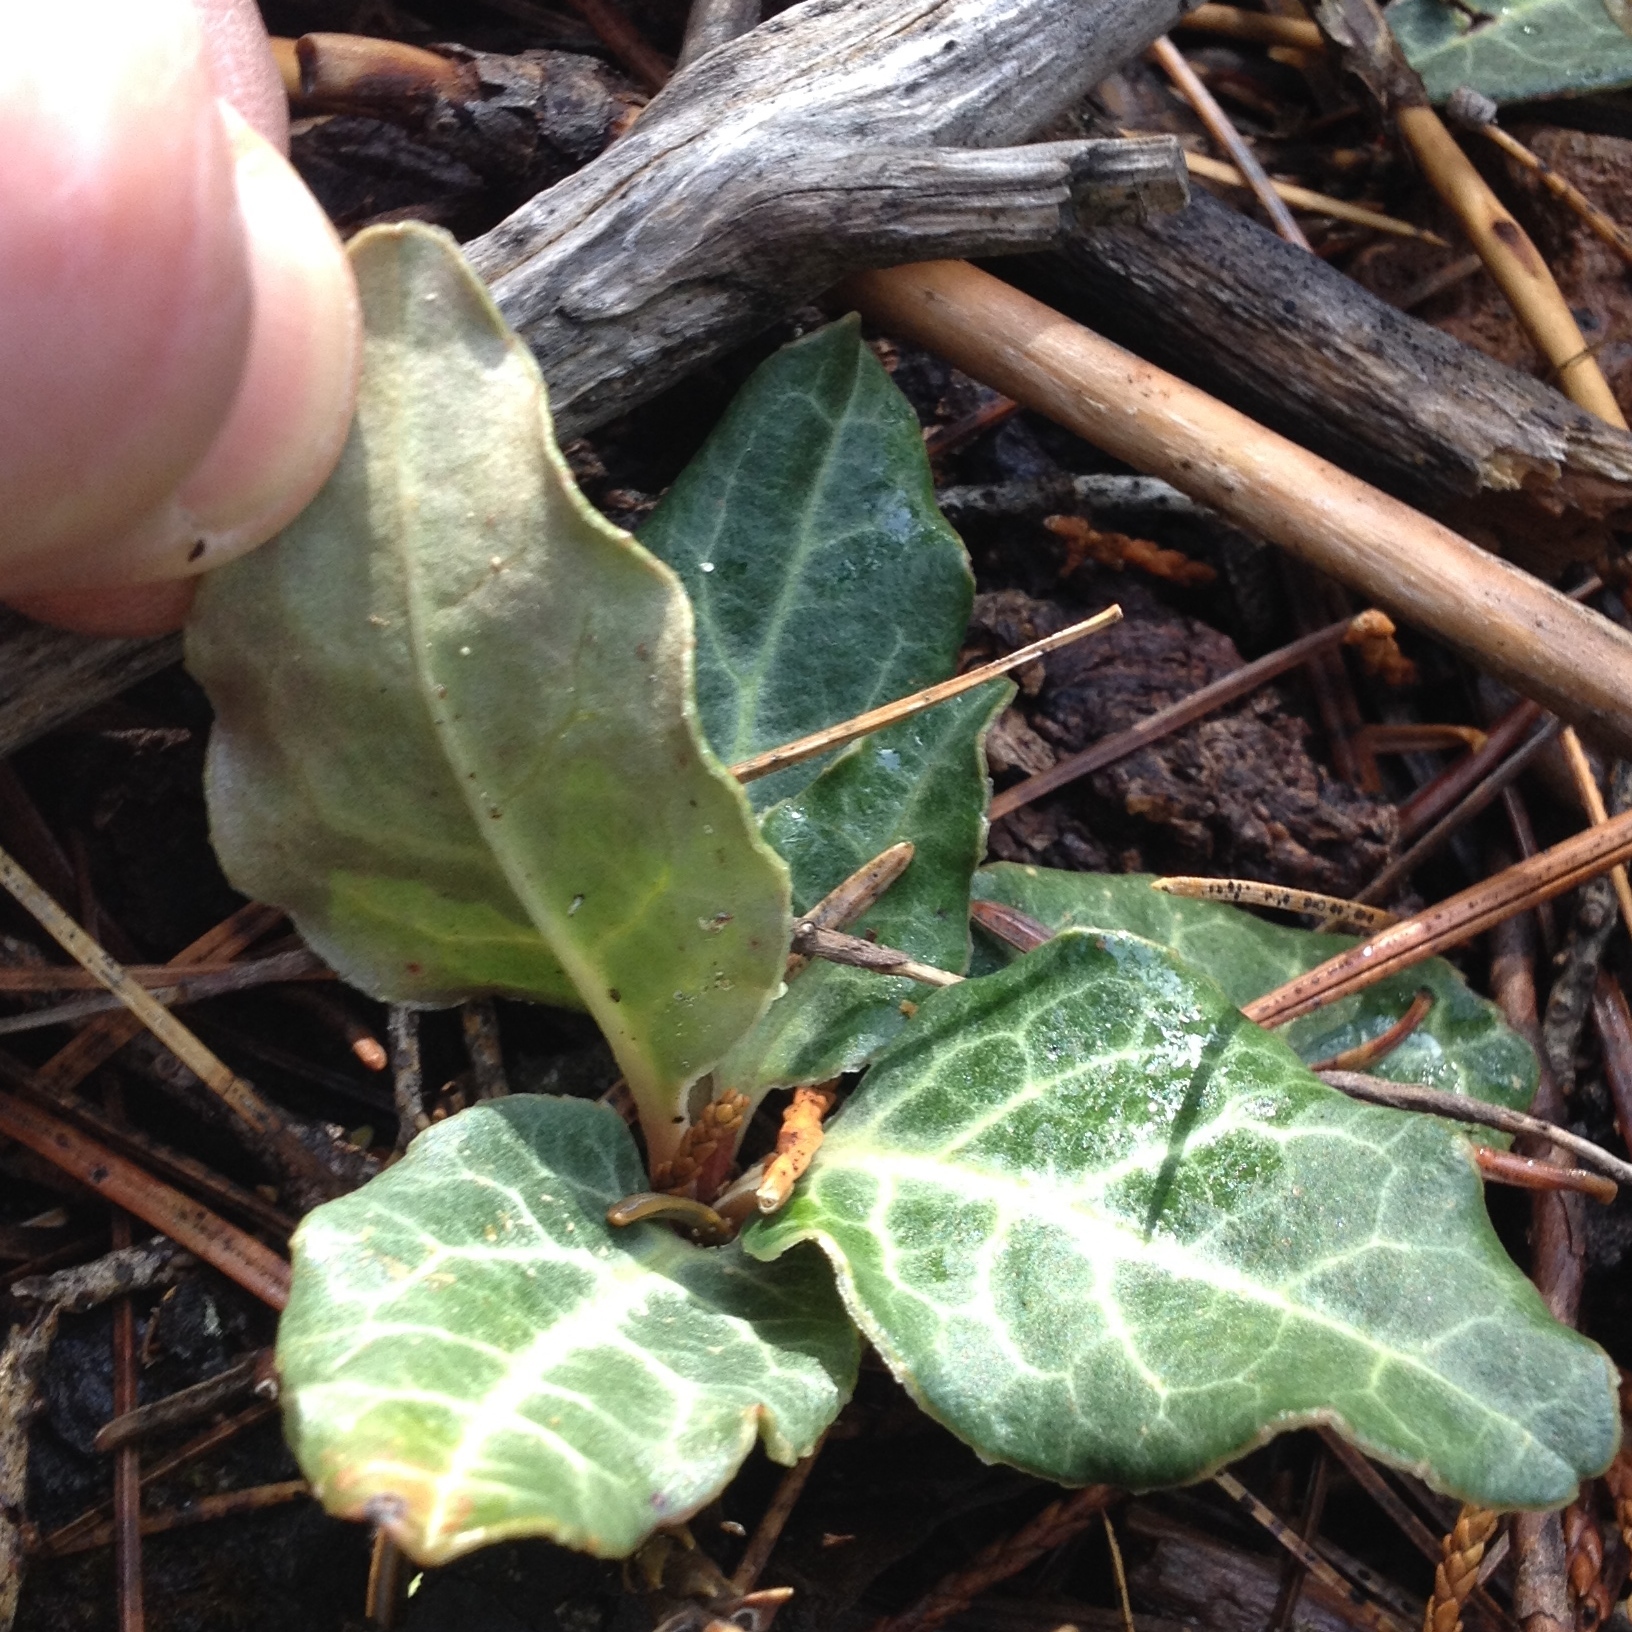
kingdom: Plantae
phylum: Tracheophyta
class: Magnoliopsida
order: Ericales
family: Ericaceae
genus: Pyrola
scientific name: Pyrola picta
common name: White-vein wintergreen
